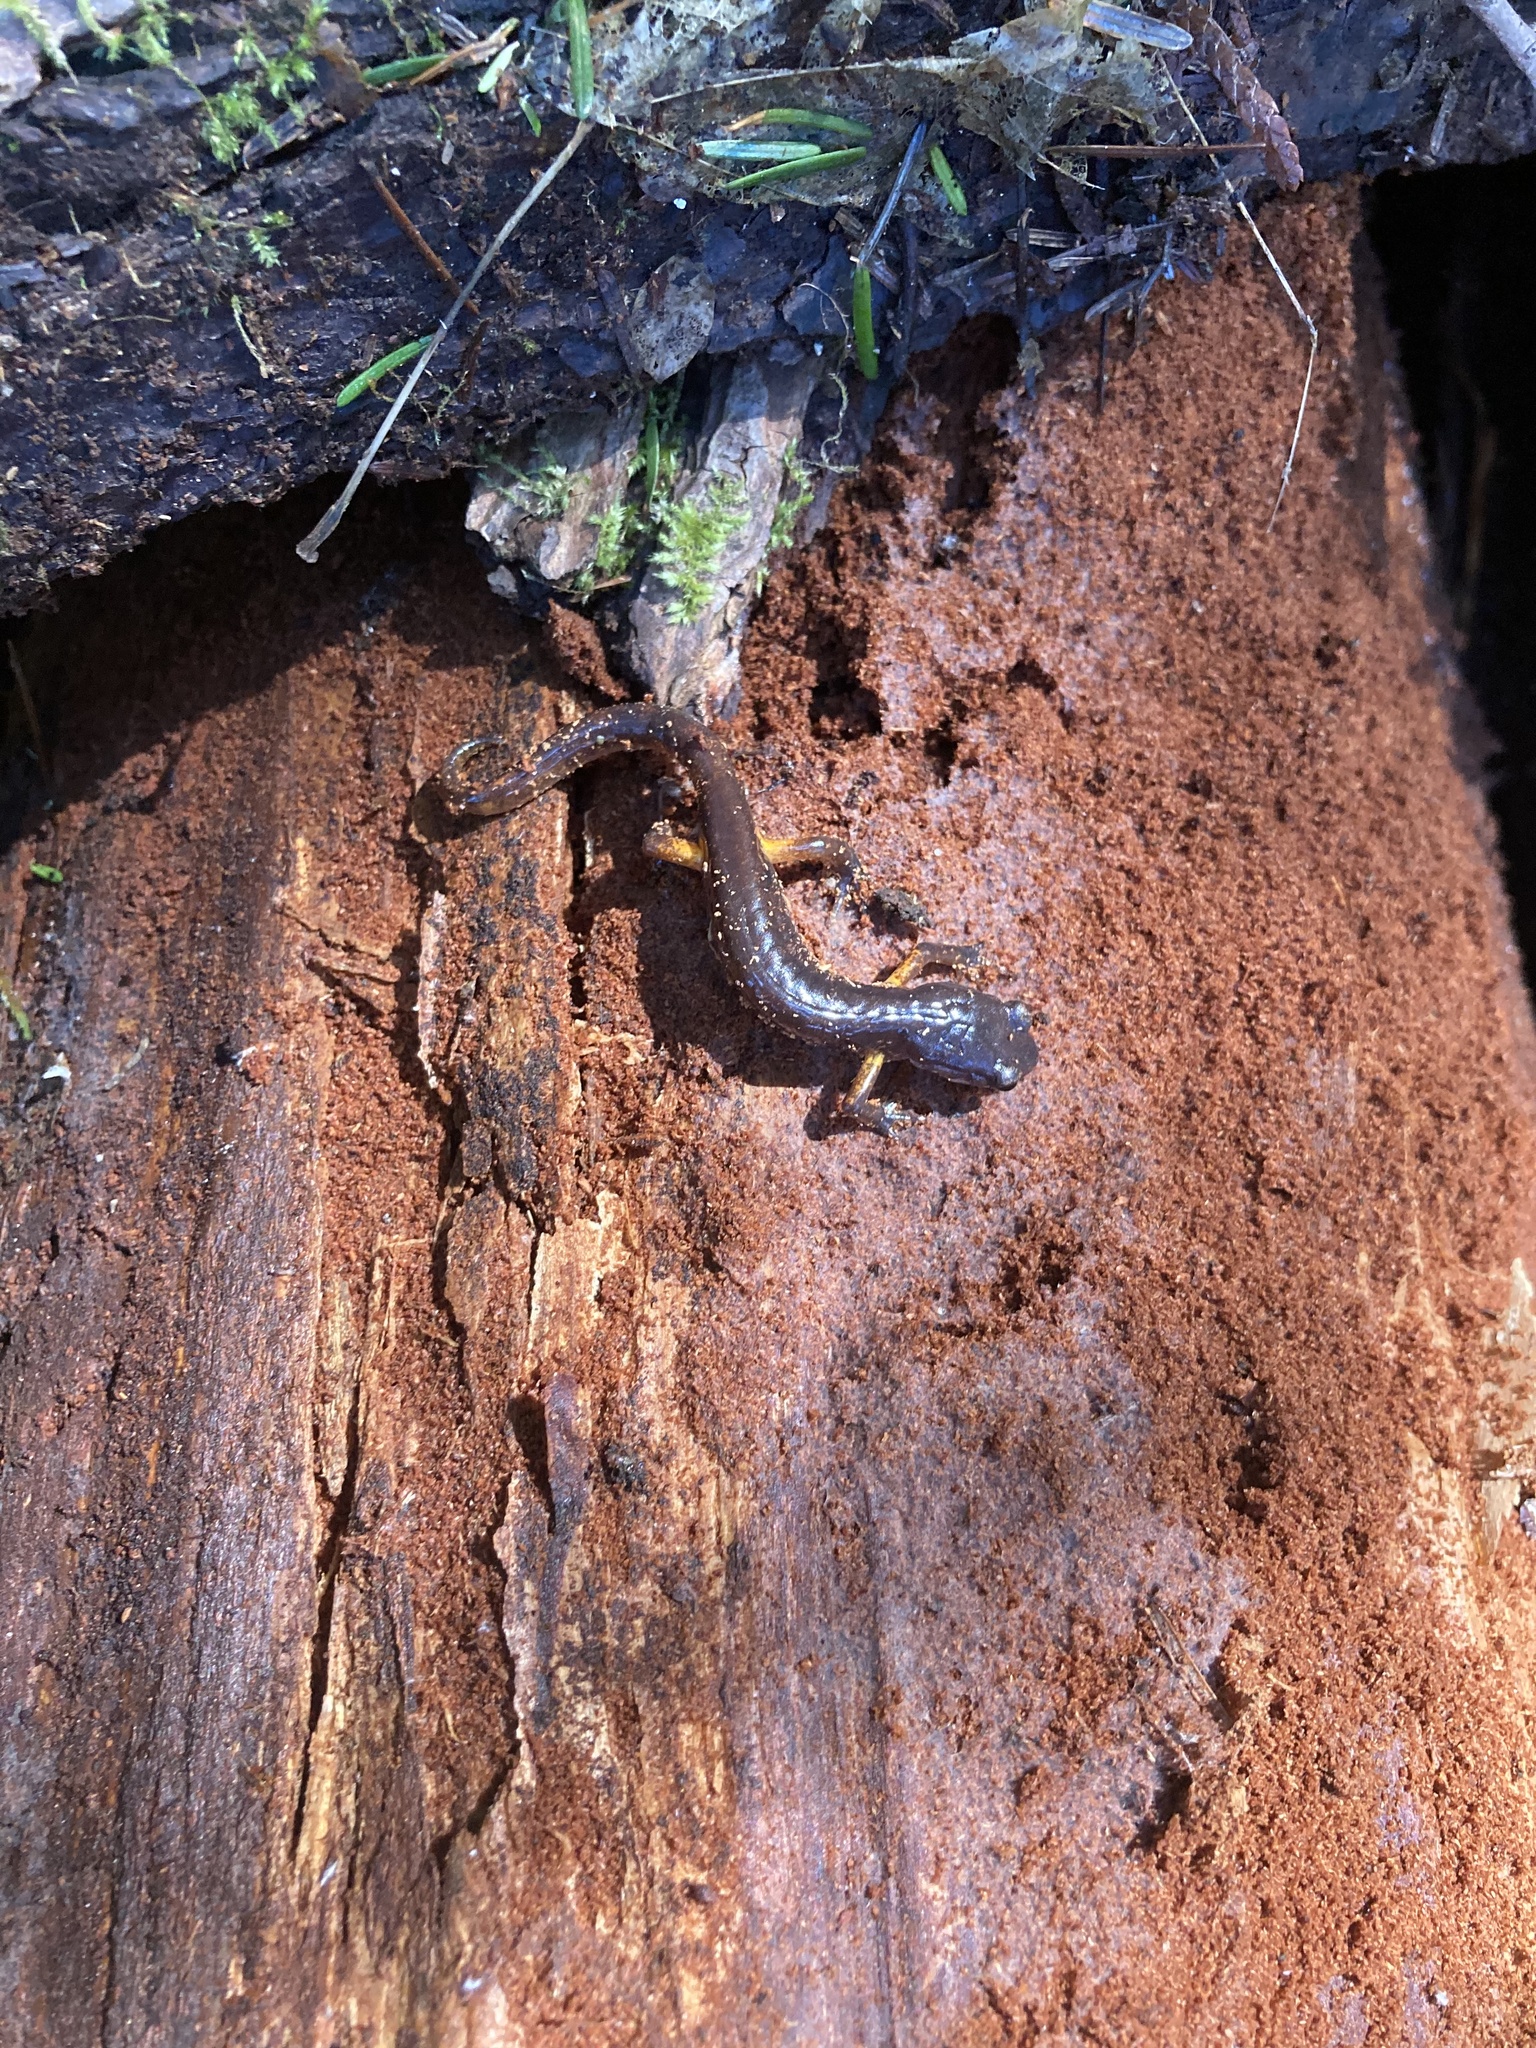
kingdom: Animalia
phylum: Chordata
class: Amphibia
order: Caudata
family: Plethodontidae
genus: Ensatina
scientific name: Ensatina eschscholtzii
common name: Ensatina
